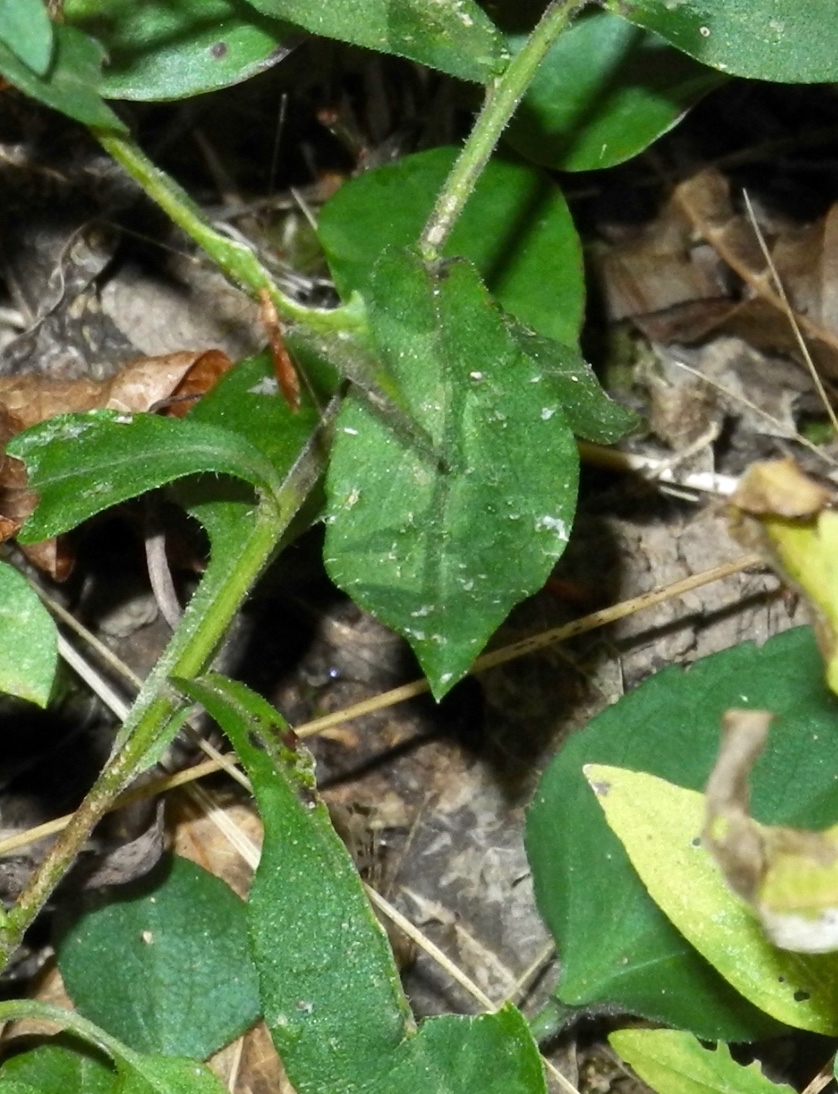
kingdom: Plantae
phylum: Tracheophyta
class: Magnoliopsida
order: Asterales
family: Asteraceae
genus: Symphyotrichum
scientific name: Symphyotrichum undulatum
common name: Clasping heart-leaf aster
